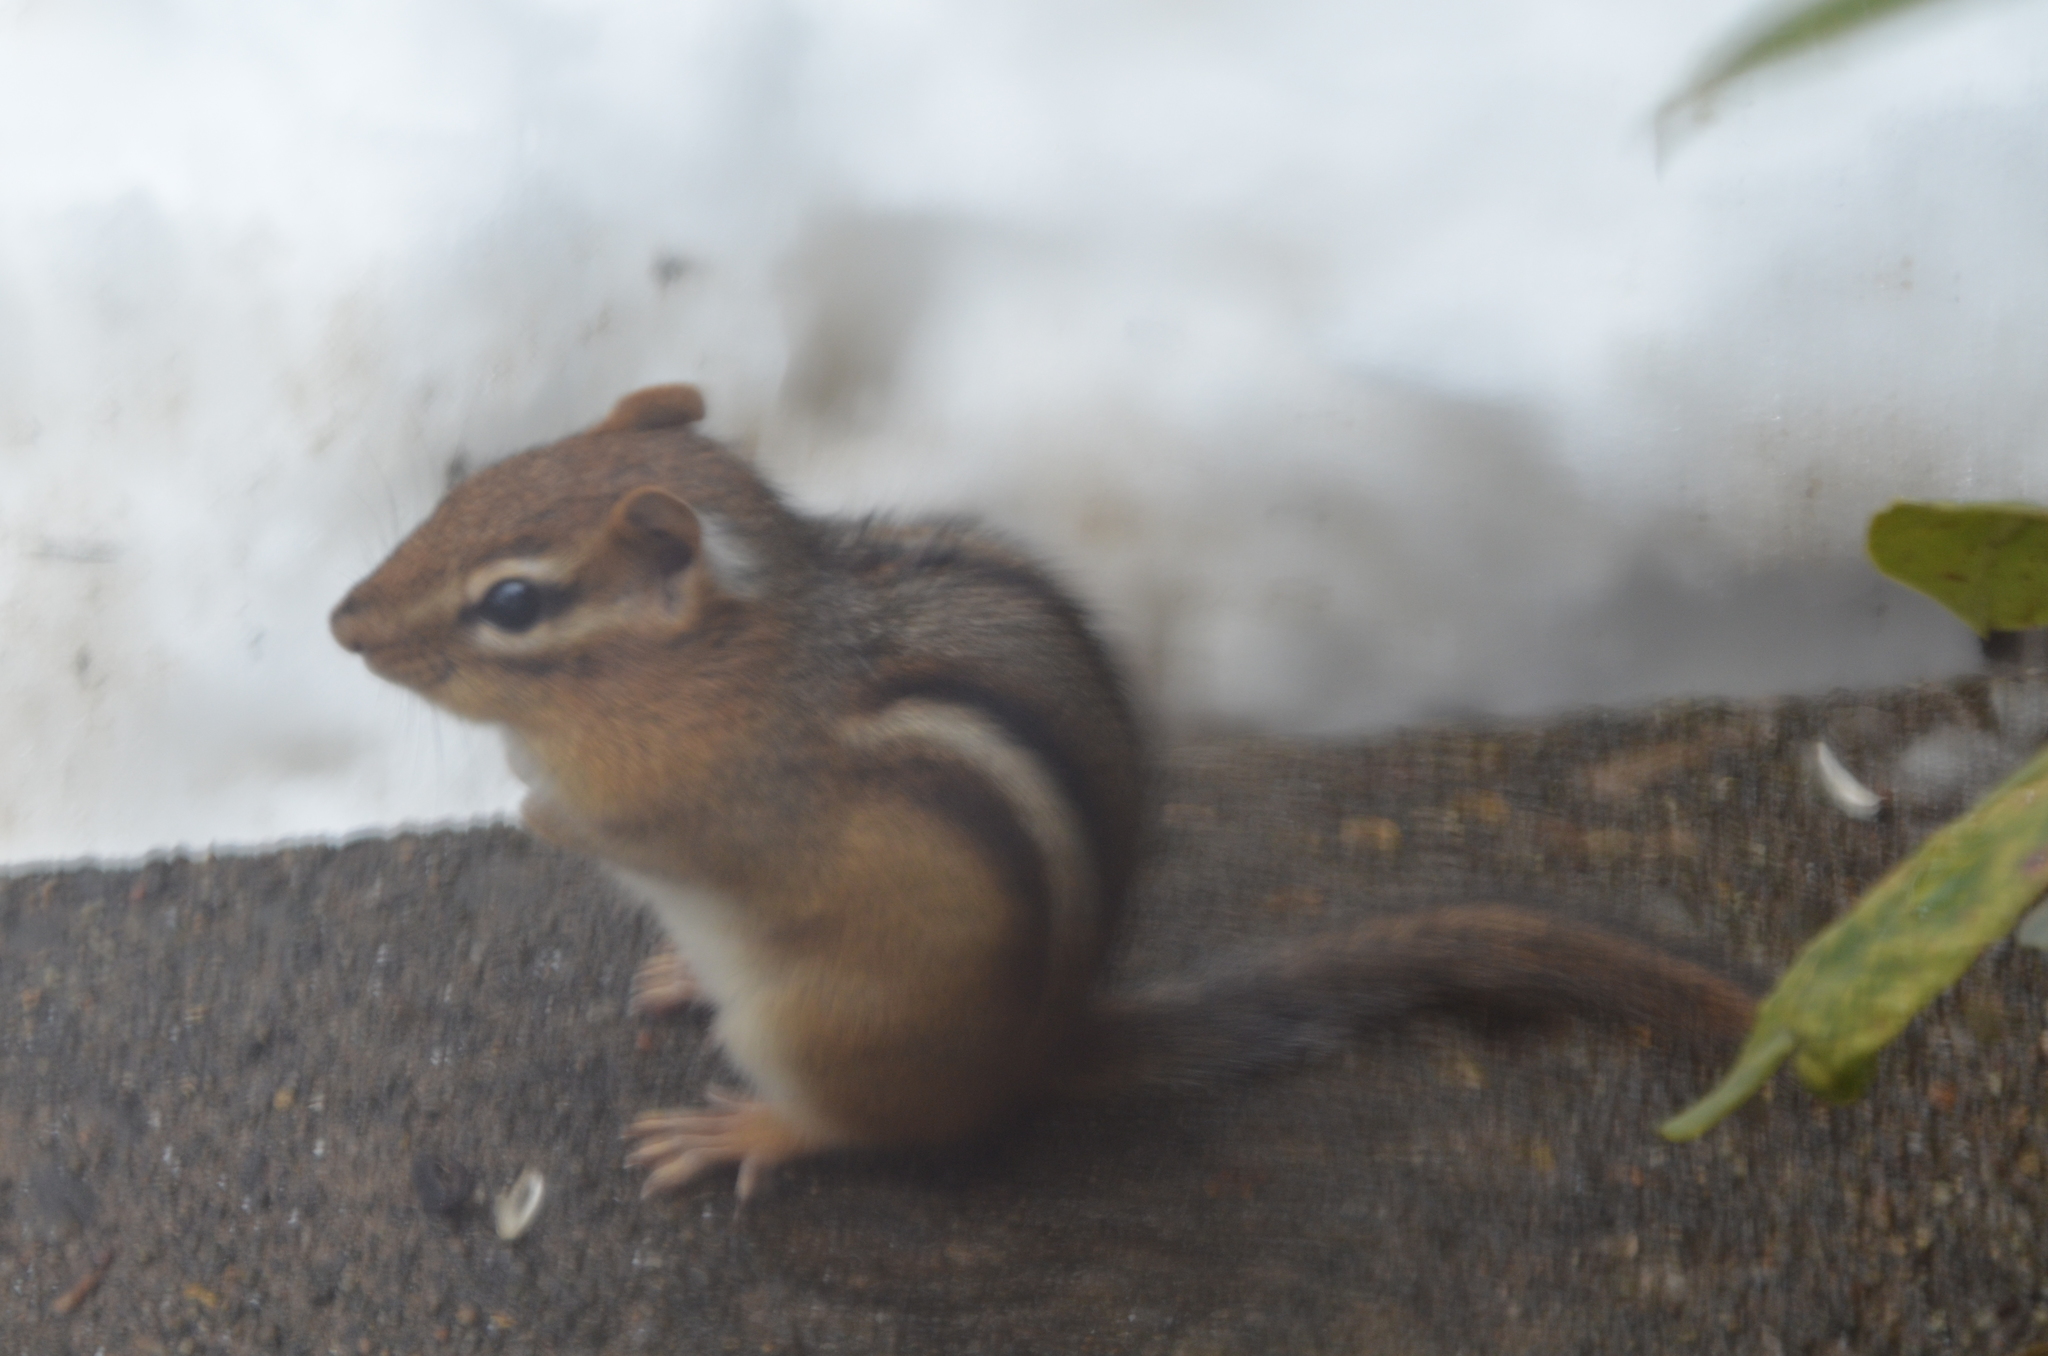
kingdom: Animalia
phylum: Chordata
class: Mammalia
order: Rodentia
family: Sciuridae
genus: Tamias
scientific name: Tamias striatus
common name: Eastern chipmunk
